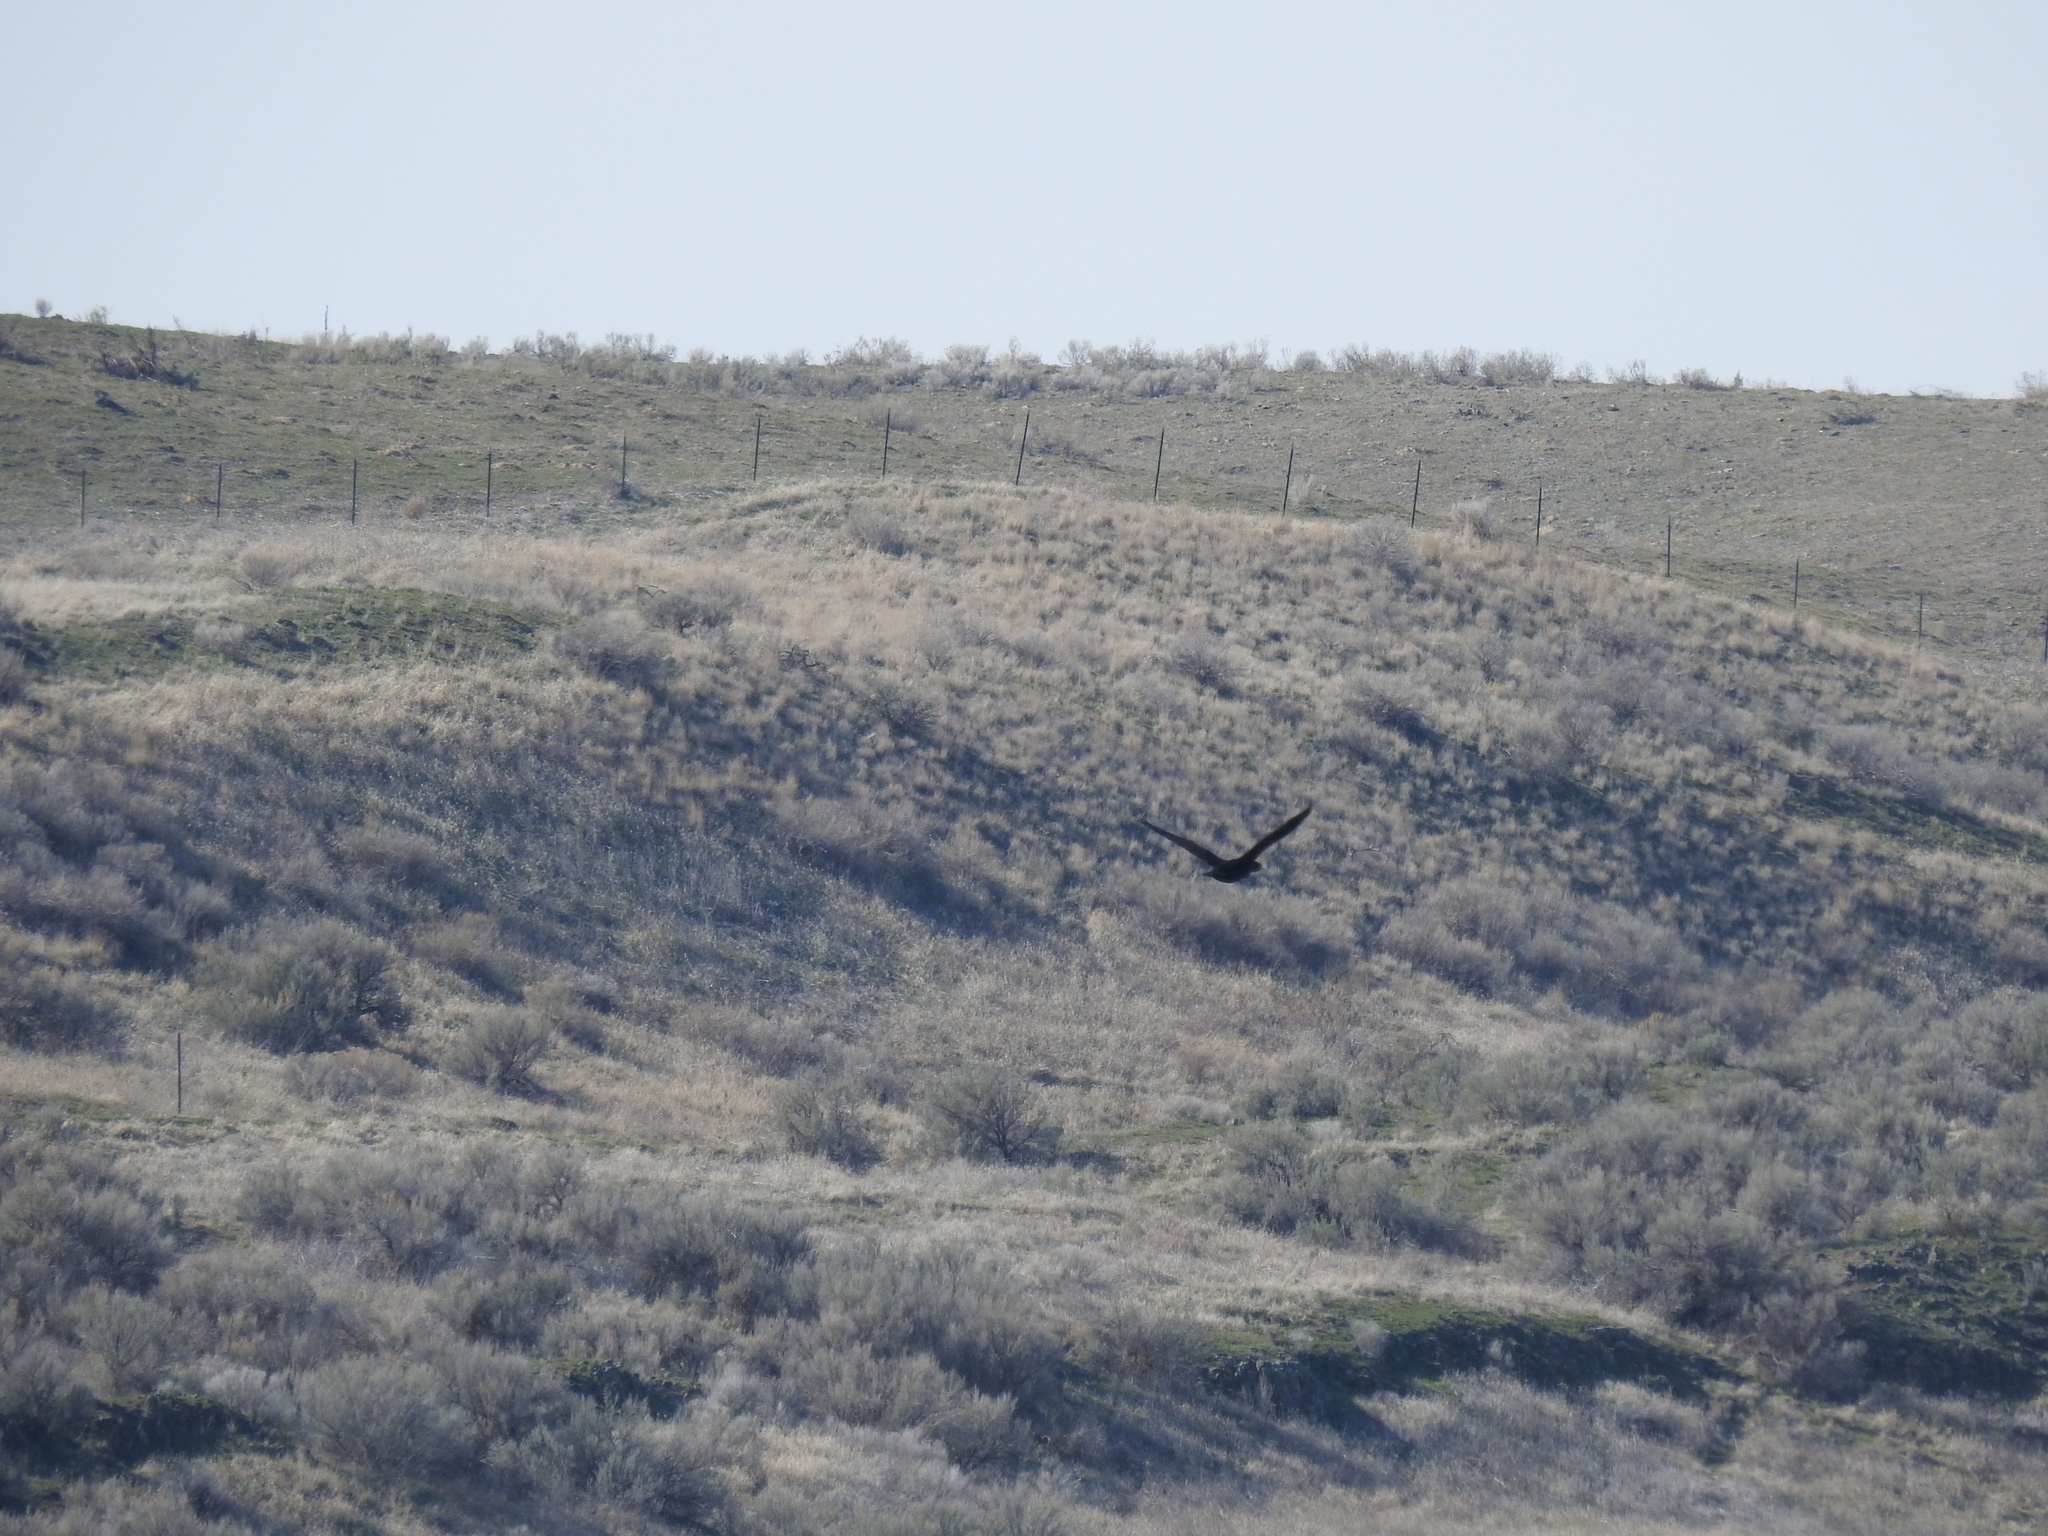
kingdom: Animalia
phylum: Chordata
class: Aves
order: Suliformes
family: Phalacrocoracidae
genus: Phalacrocorax
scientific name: Phalacrocorax auritus
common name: Double-crested cormorant
